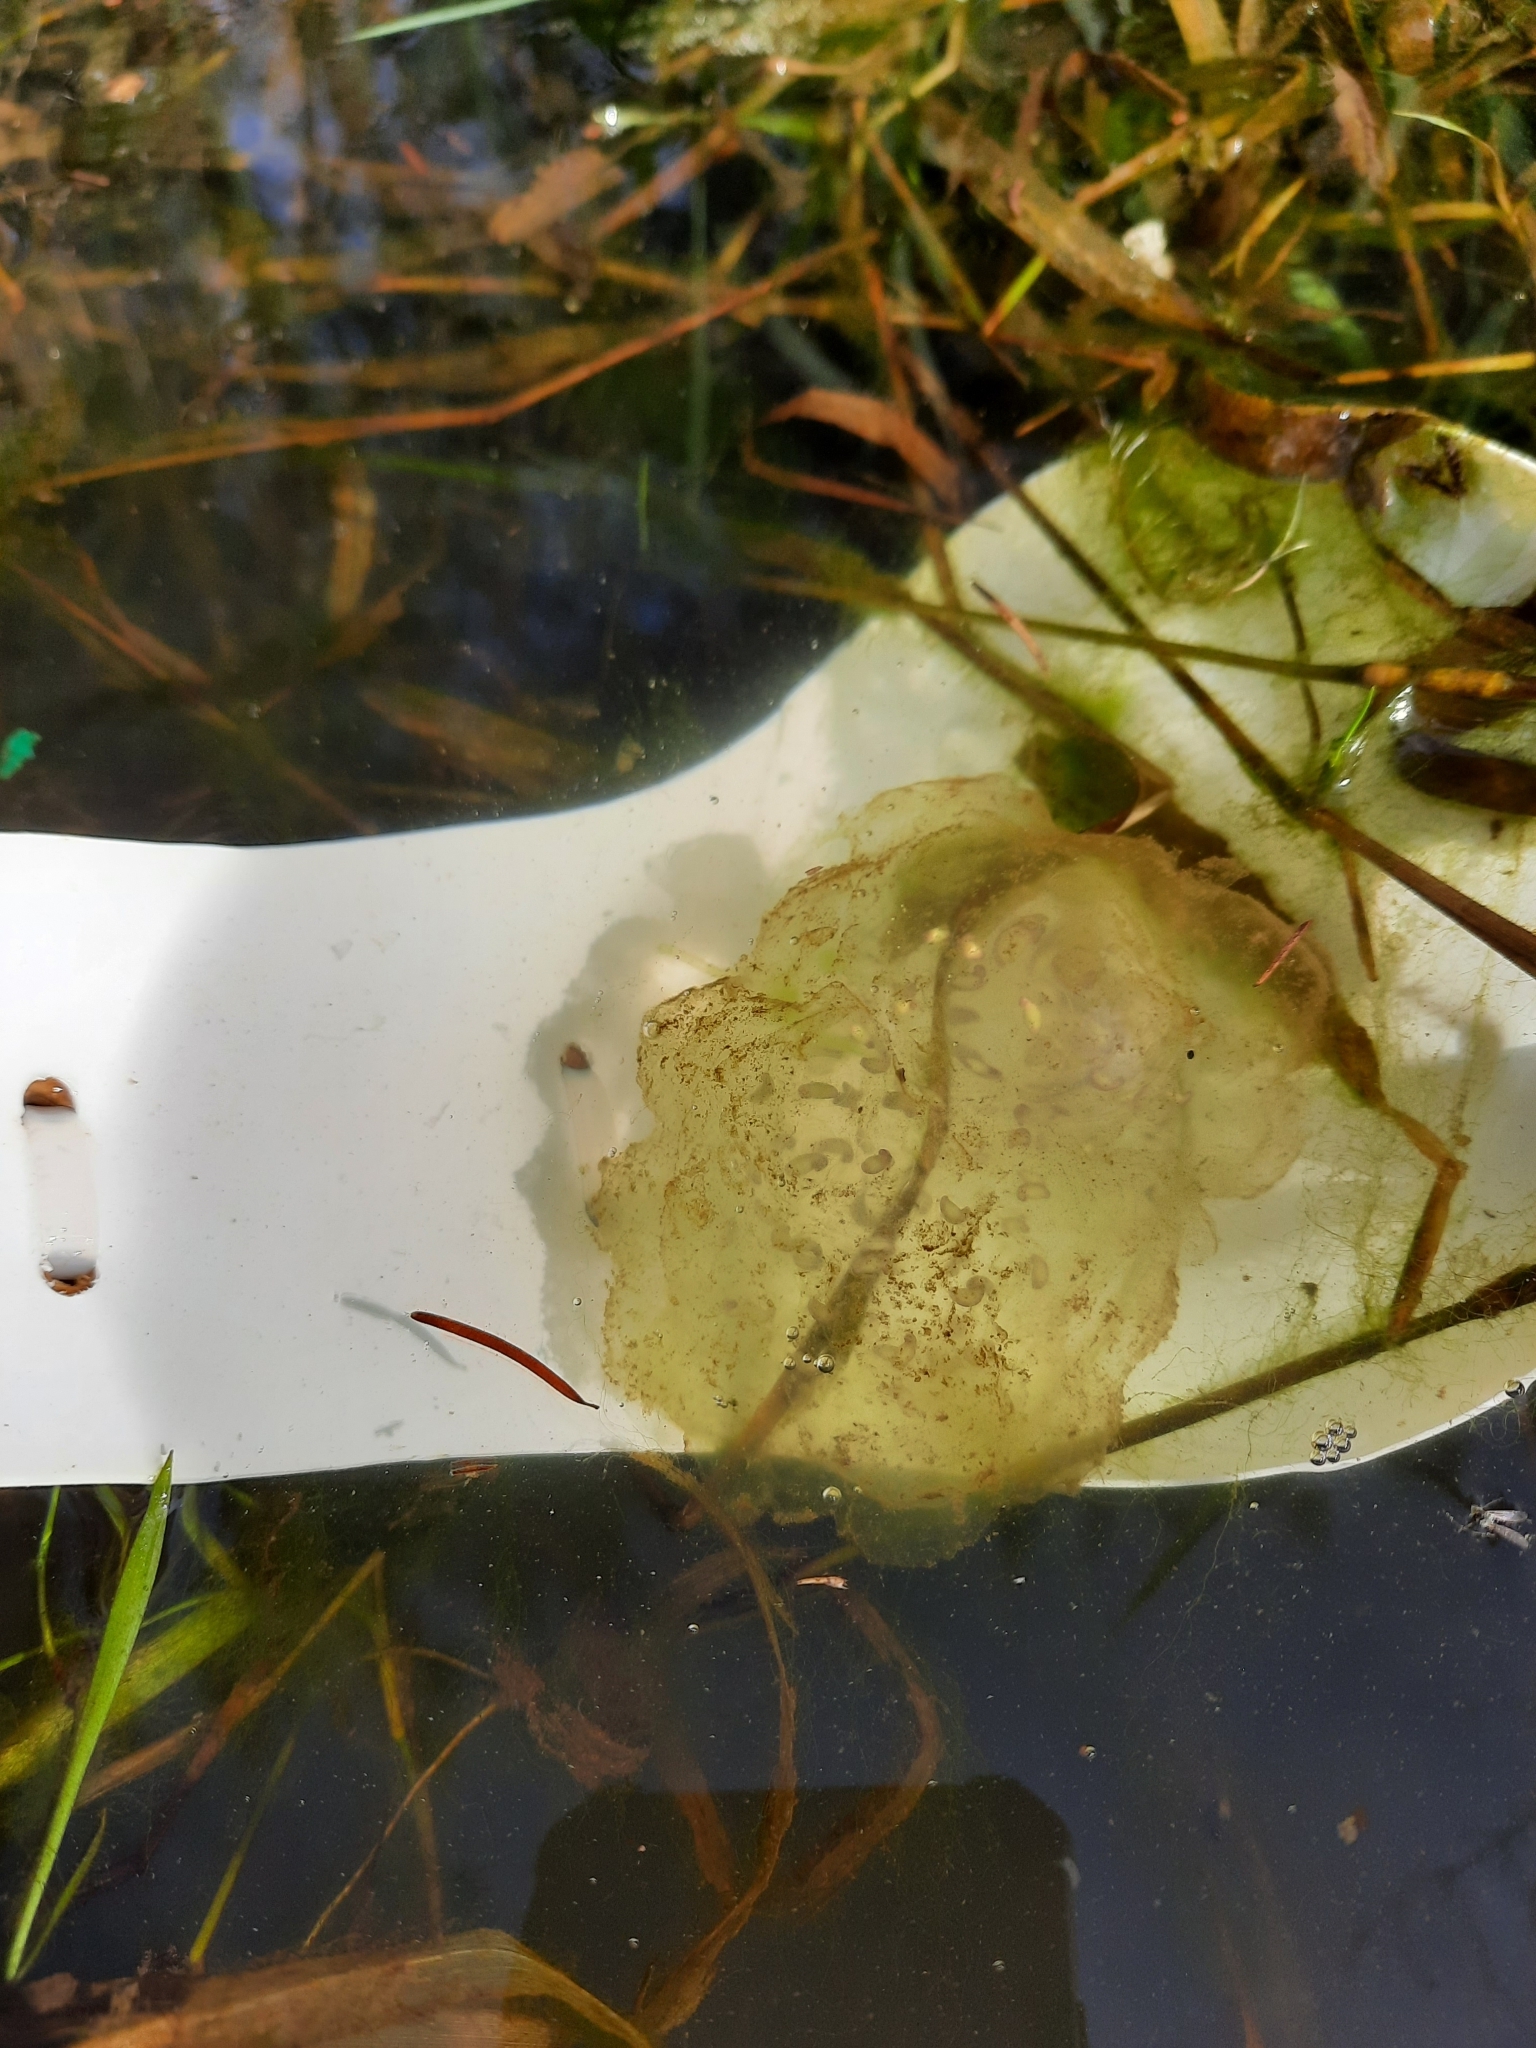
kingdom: Animalia
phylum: Chordata
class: Amphibia
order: Caudata
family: Ambystomatidae
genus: Ambystoma
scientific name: Ambystoma gracile
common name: Northwestern salamander
